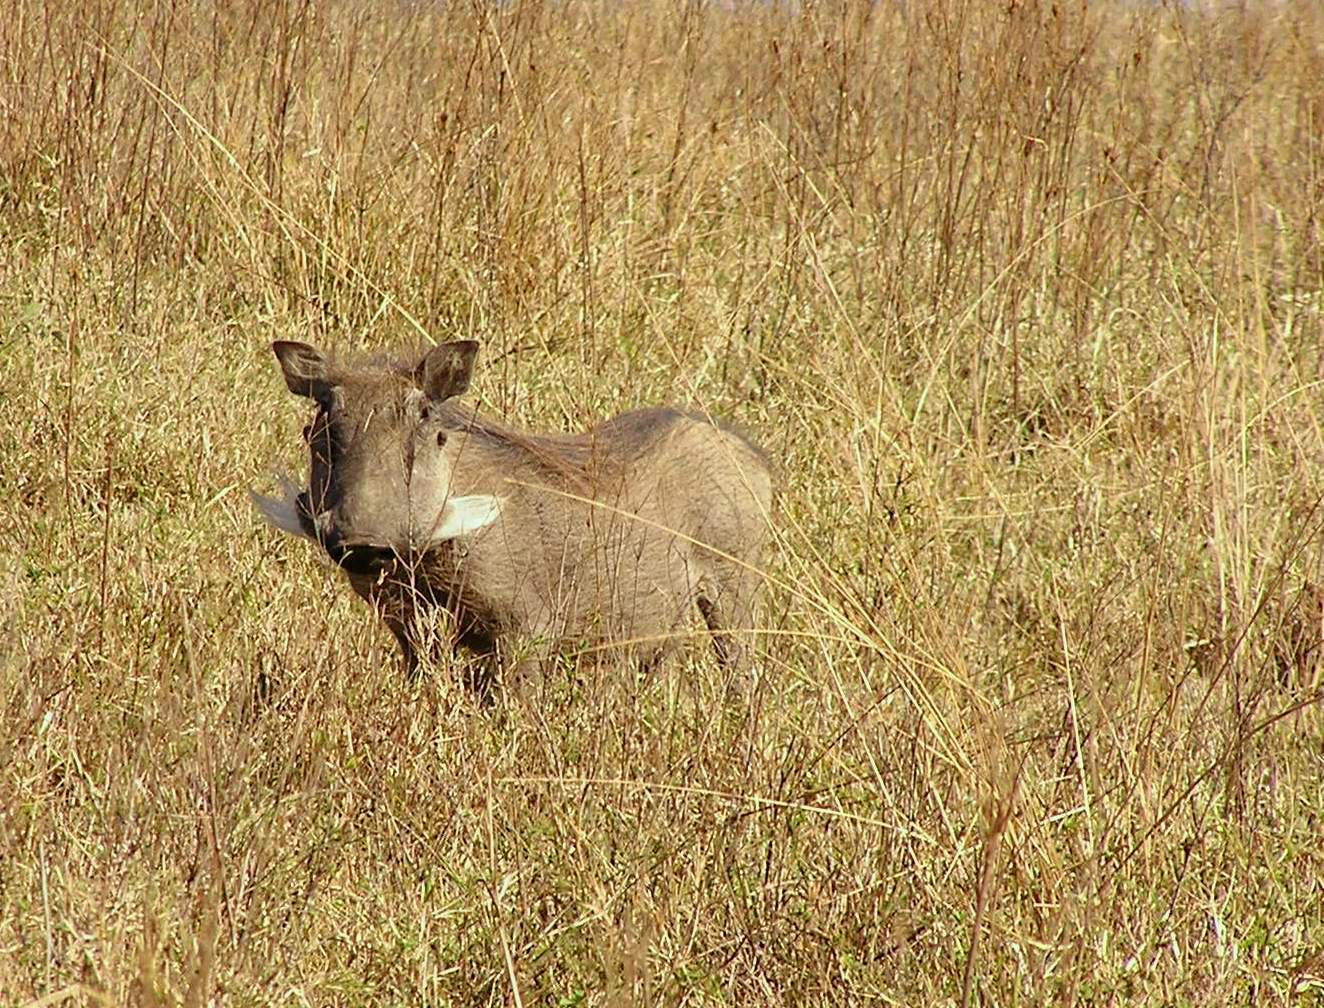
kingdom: Animalia
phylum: Chordata
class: Mammalia
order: Artiodactyla
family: Suidae
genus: Phacochoerus
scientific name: Phacochoerus africanus
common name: Common warthog
